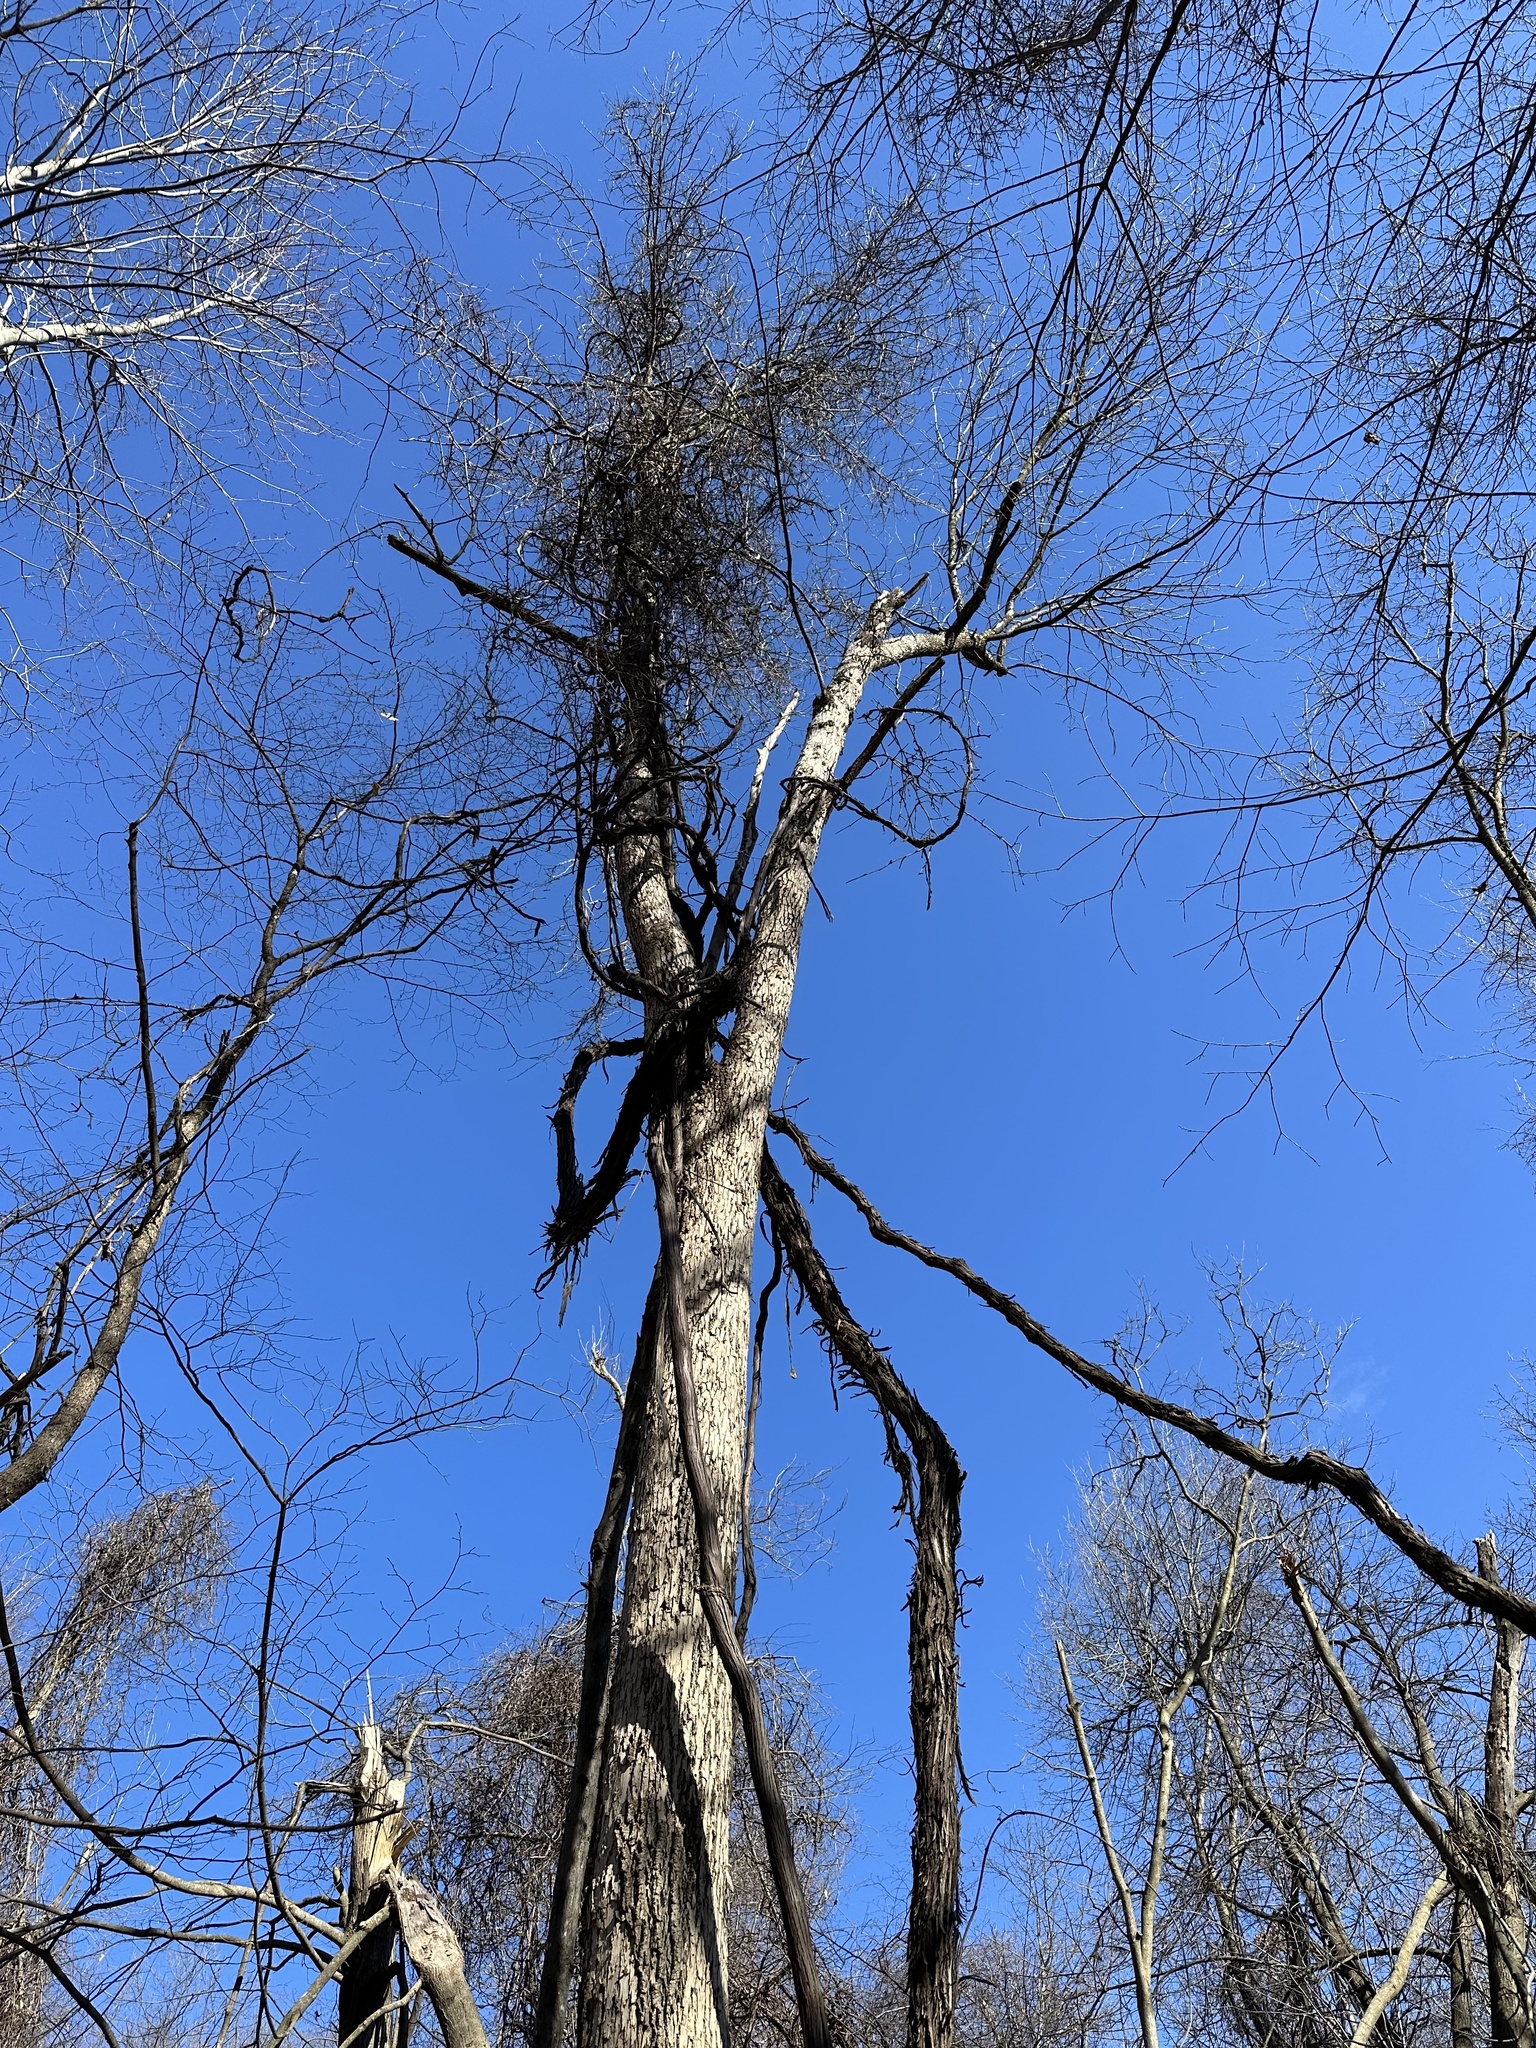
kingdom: Plantae
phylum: Tracheophyta
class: Magnoliopsida
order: Lamiales
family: Oleaceae
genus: Fraxinus
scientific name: Fraxinus americana
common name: White ash
